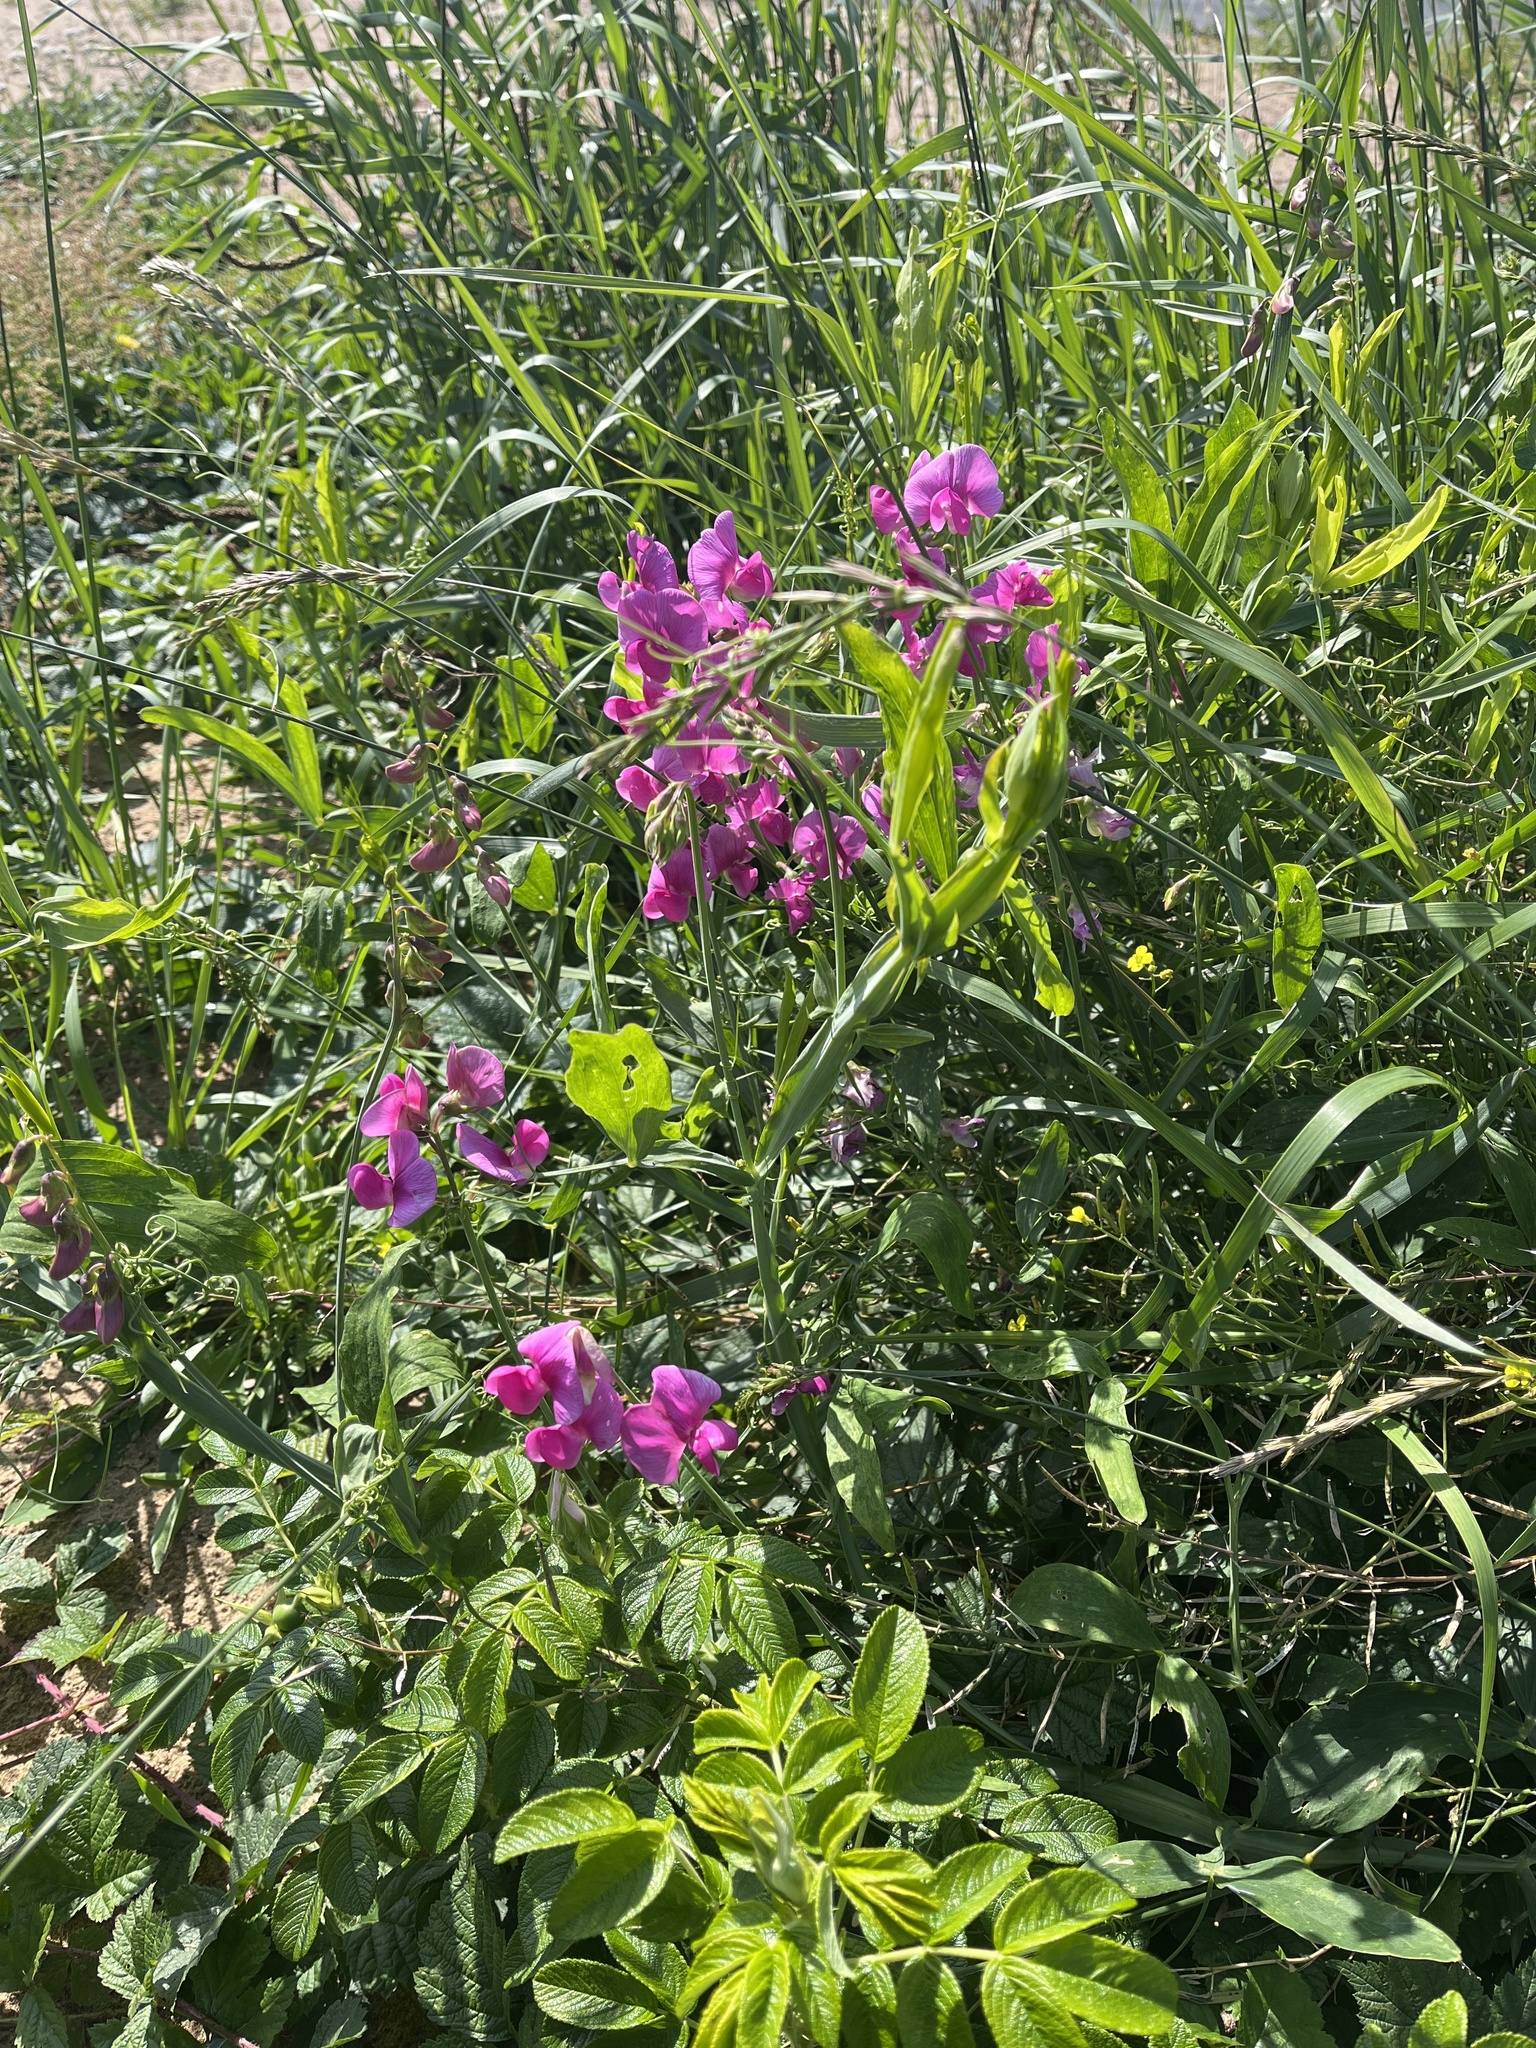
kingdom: Plantae
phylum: Tracheophyta
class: Magnoliopsida
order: Fabales
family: Fabaceae
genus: Lathyrus
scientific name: Lathyrus latifolius
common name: Perennial pea
